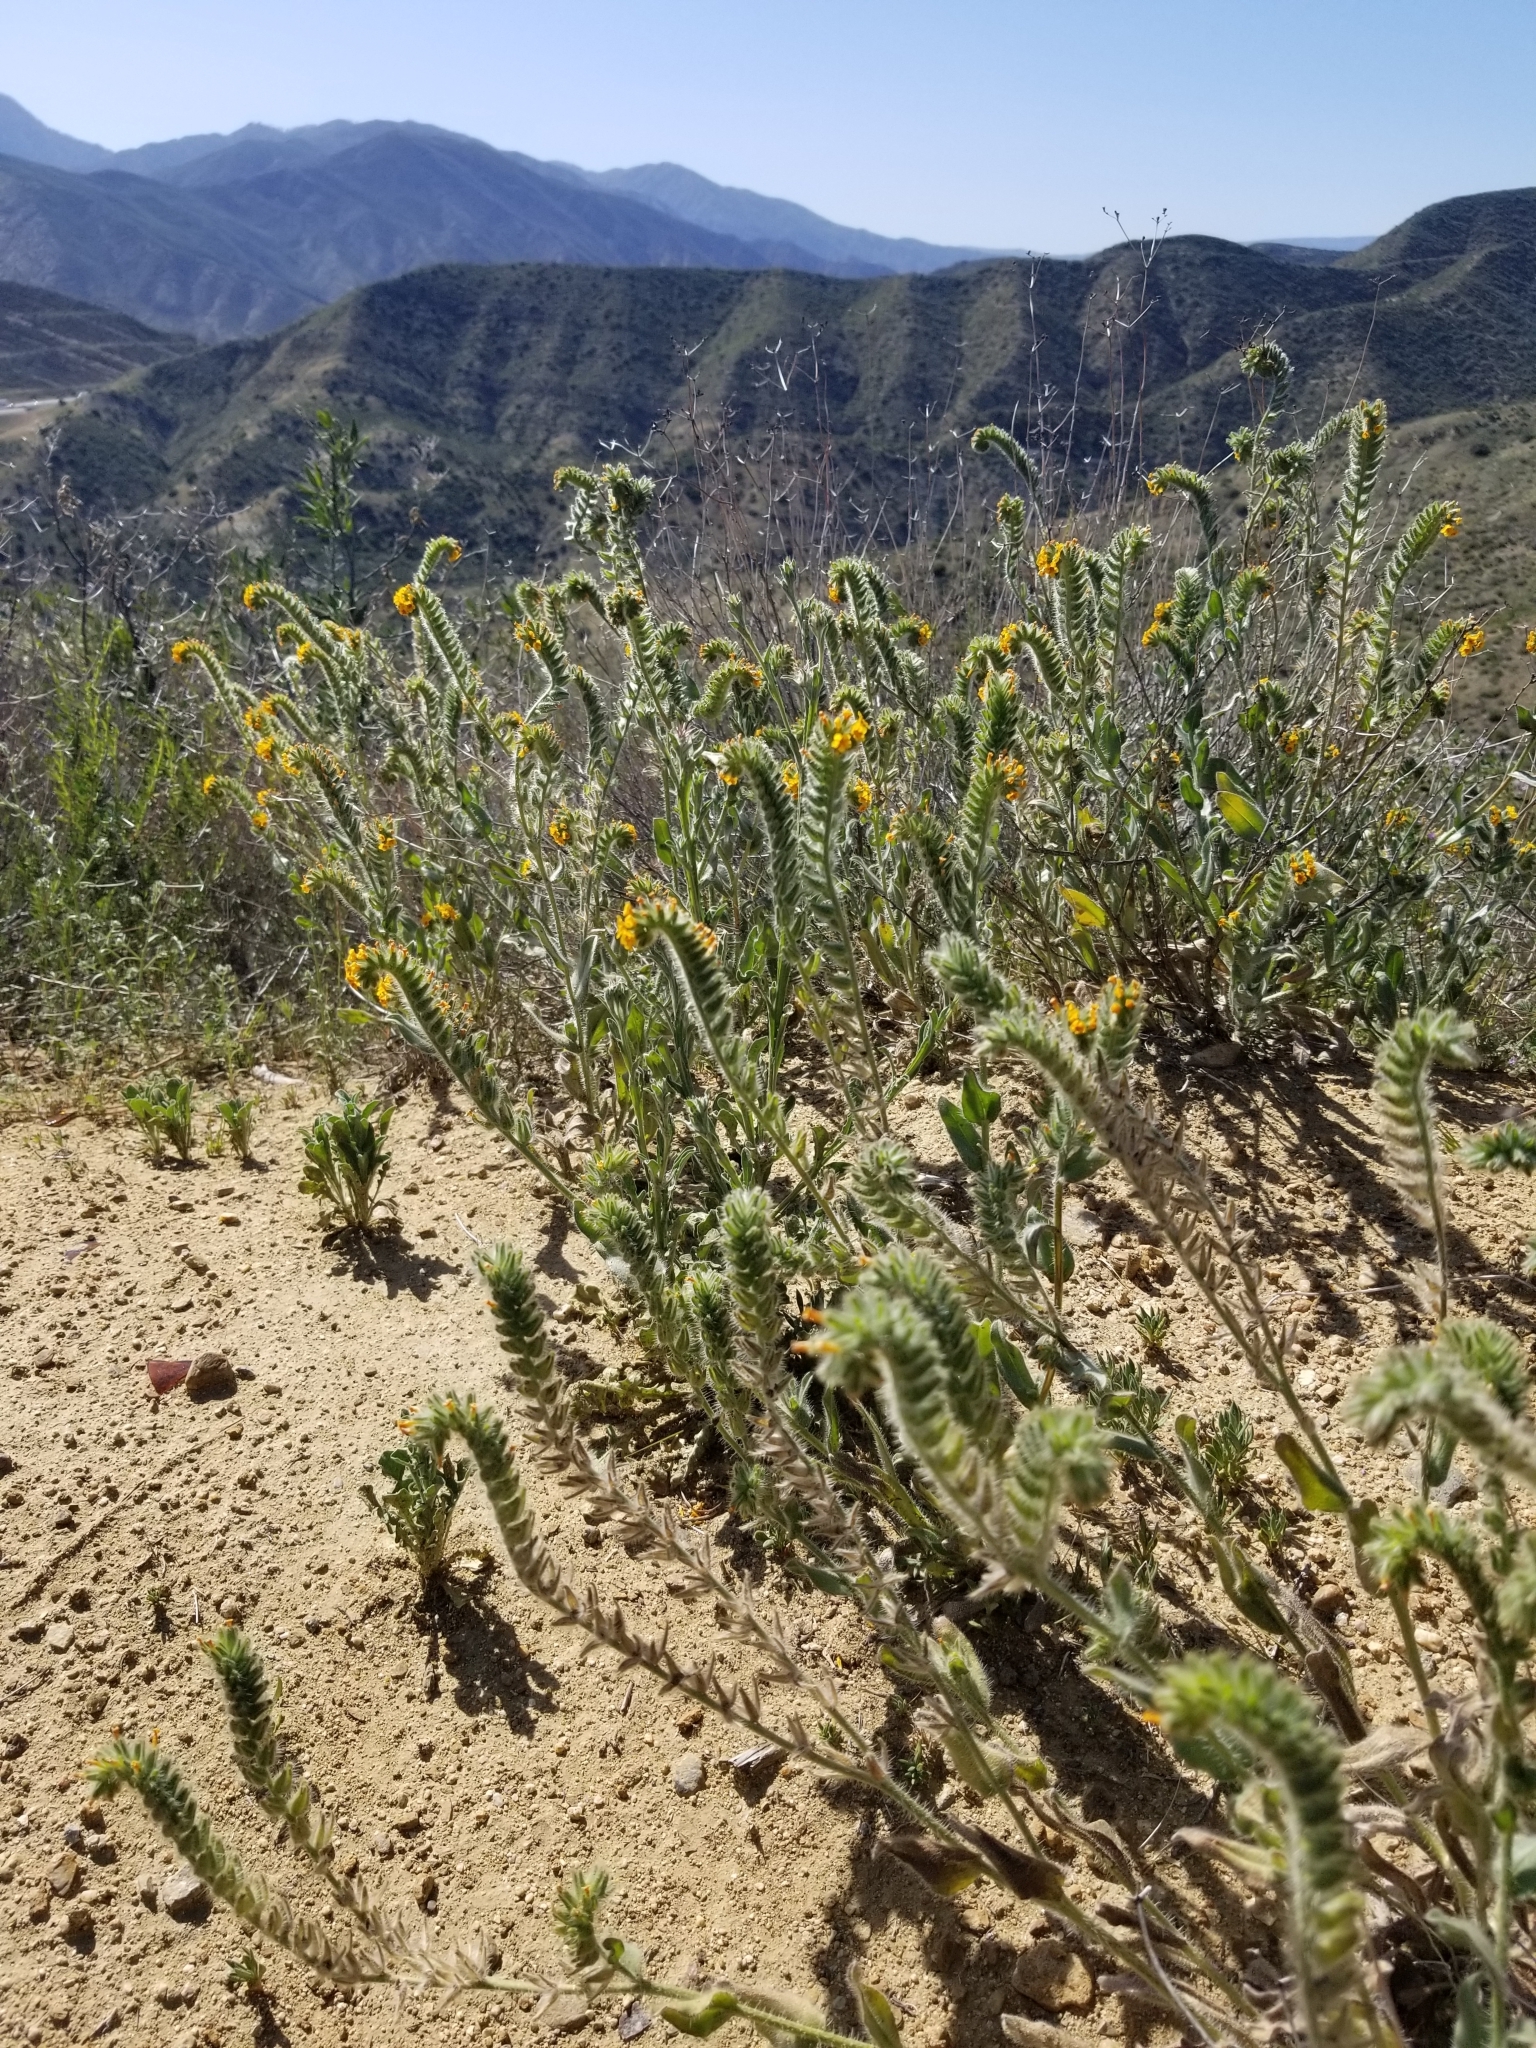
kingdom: Plantae
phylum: Tracheophyta
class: Magnoliopsida
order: Boraginales
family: Boraginaceae
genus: Amsinckia
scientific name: Amsinckia menziesii
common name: Menzies' fiddleneck
